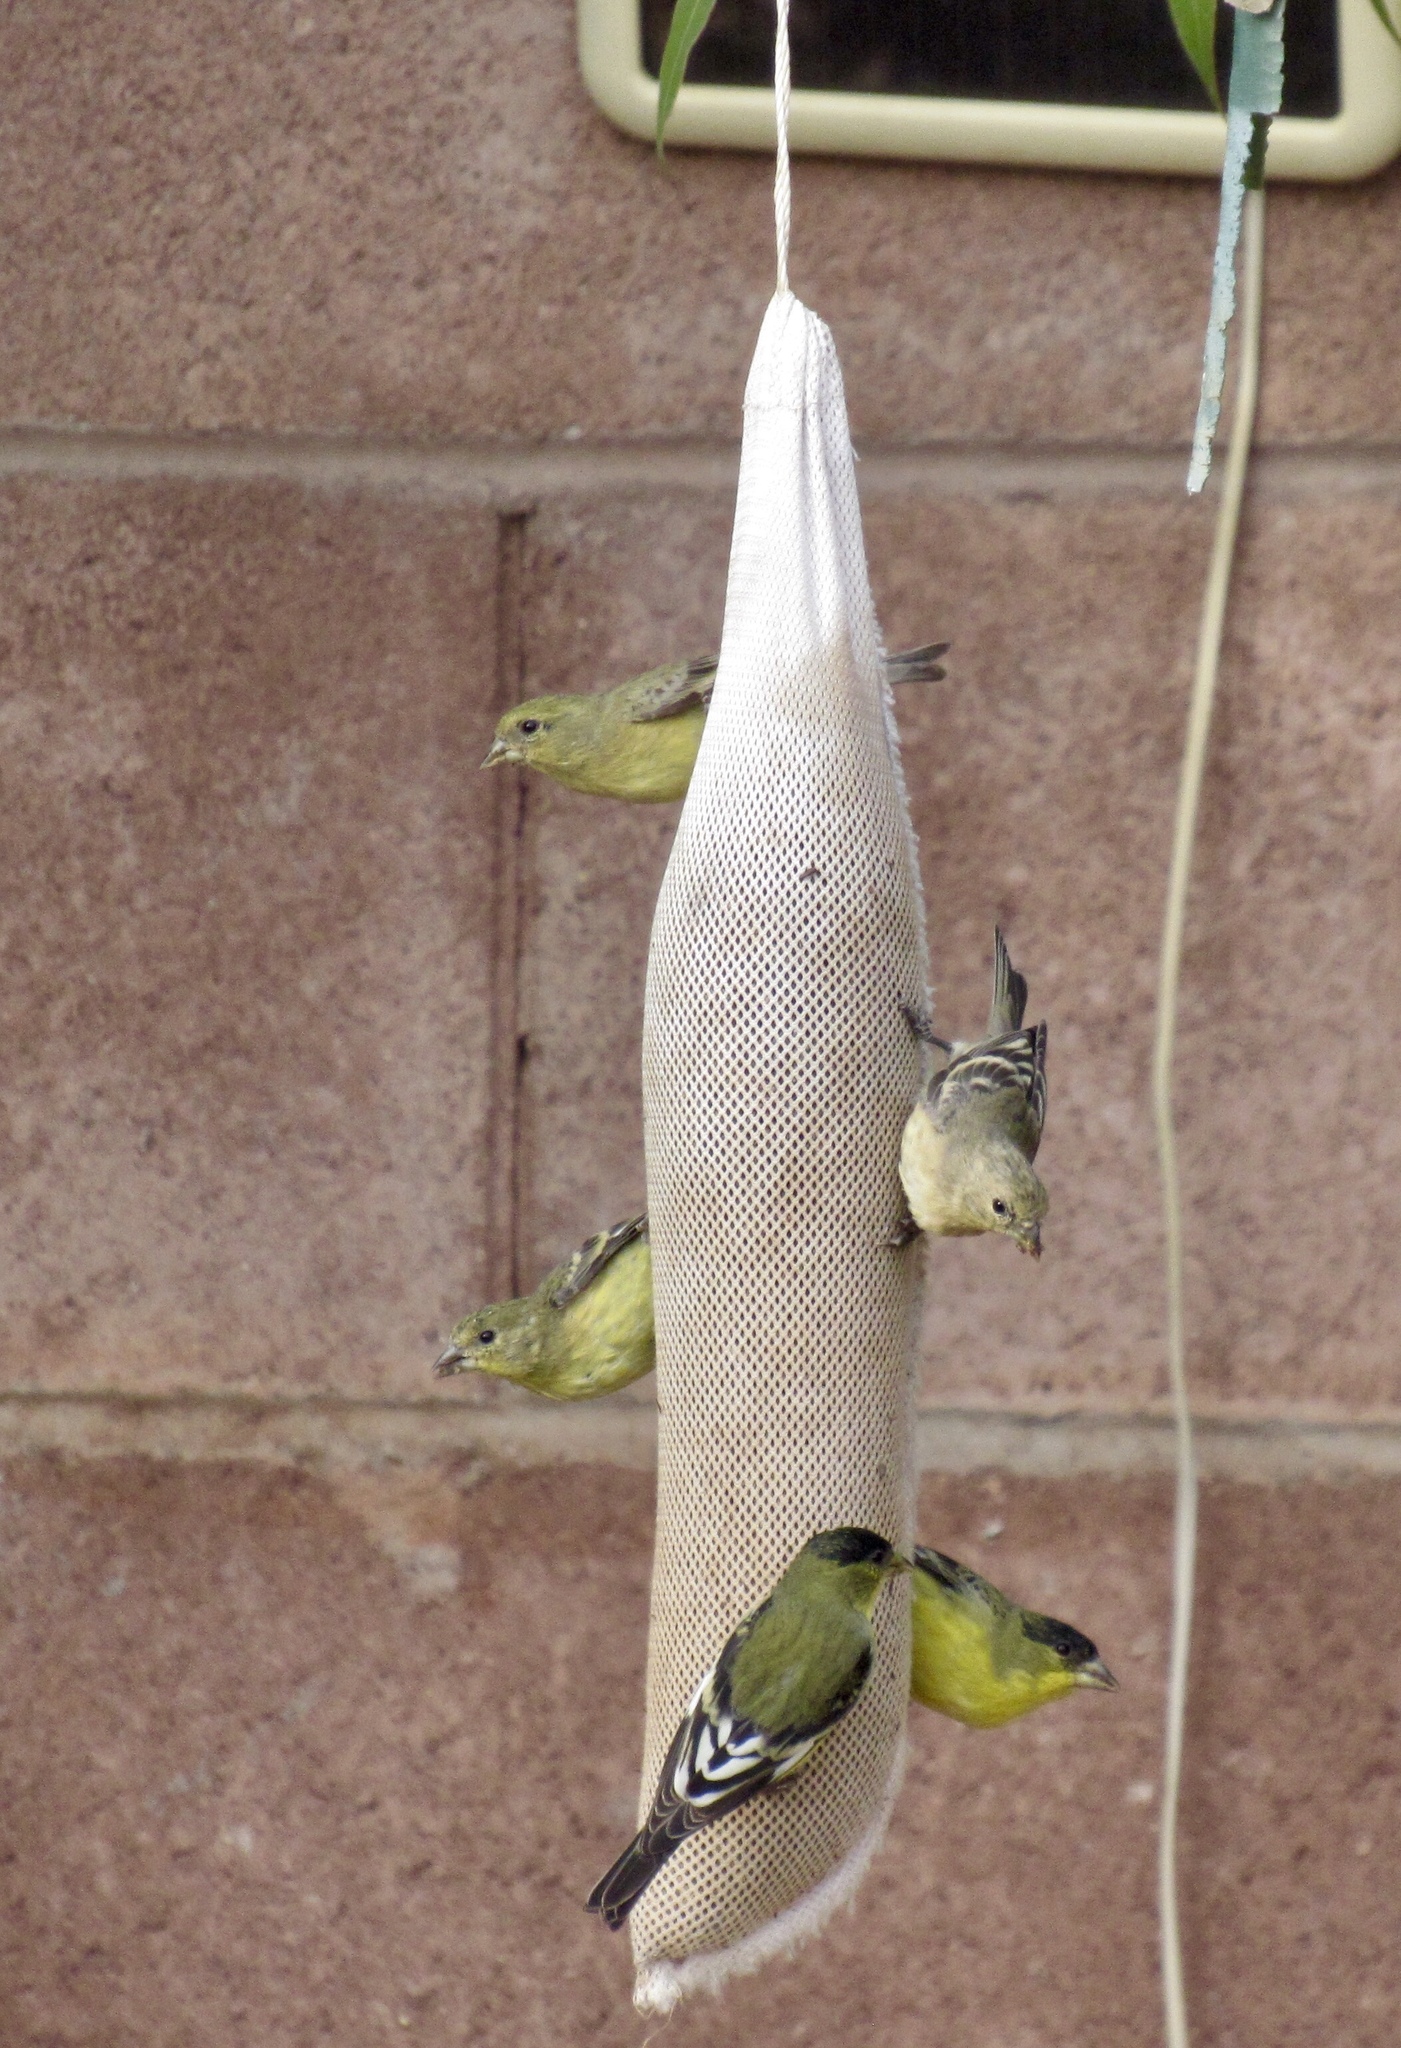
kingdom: Animalia
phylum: Chordata
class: Aves
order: Passeriformes
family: Fringillidae
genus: Spinus
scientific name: Spinus psaltria
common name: Lesser goldfinch
